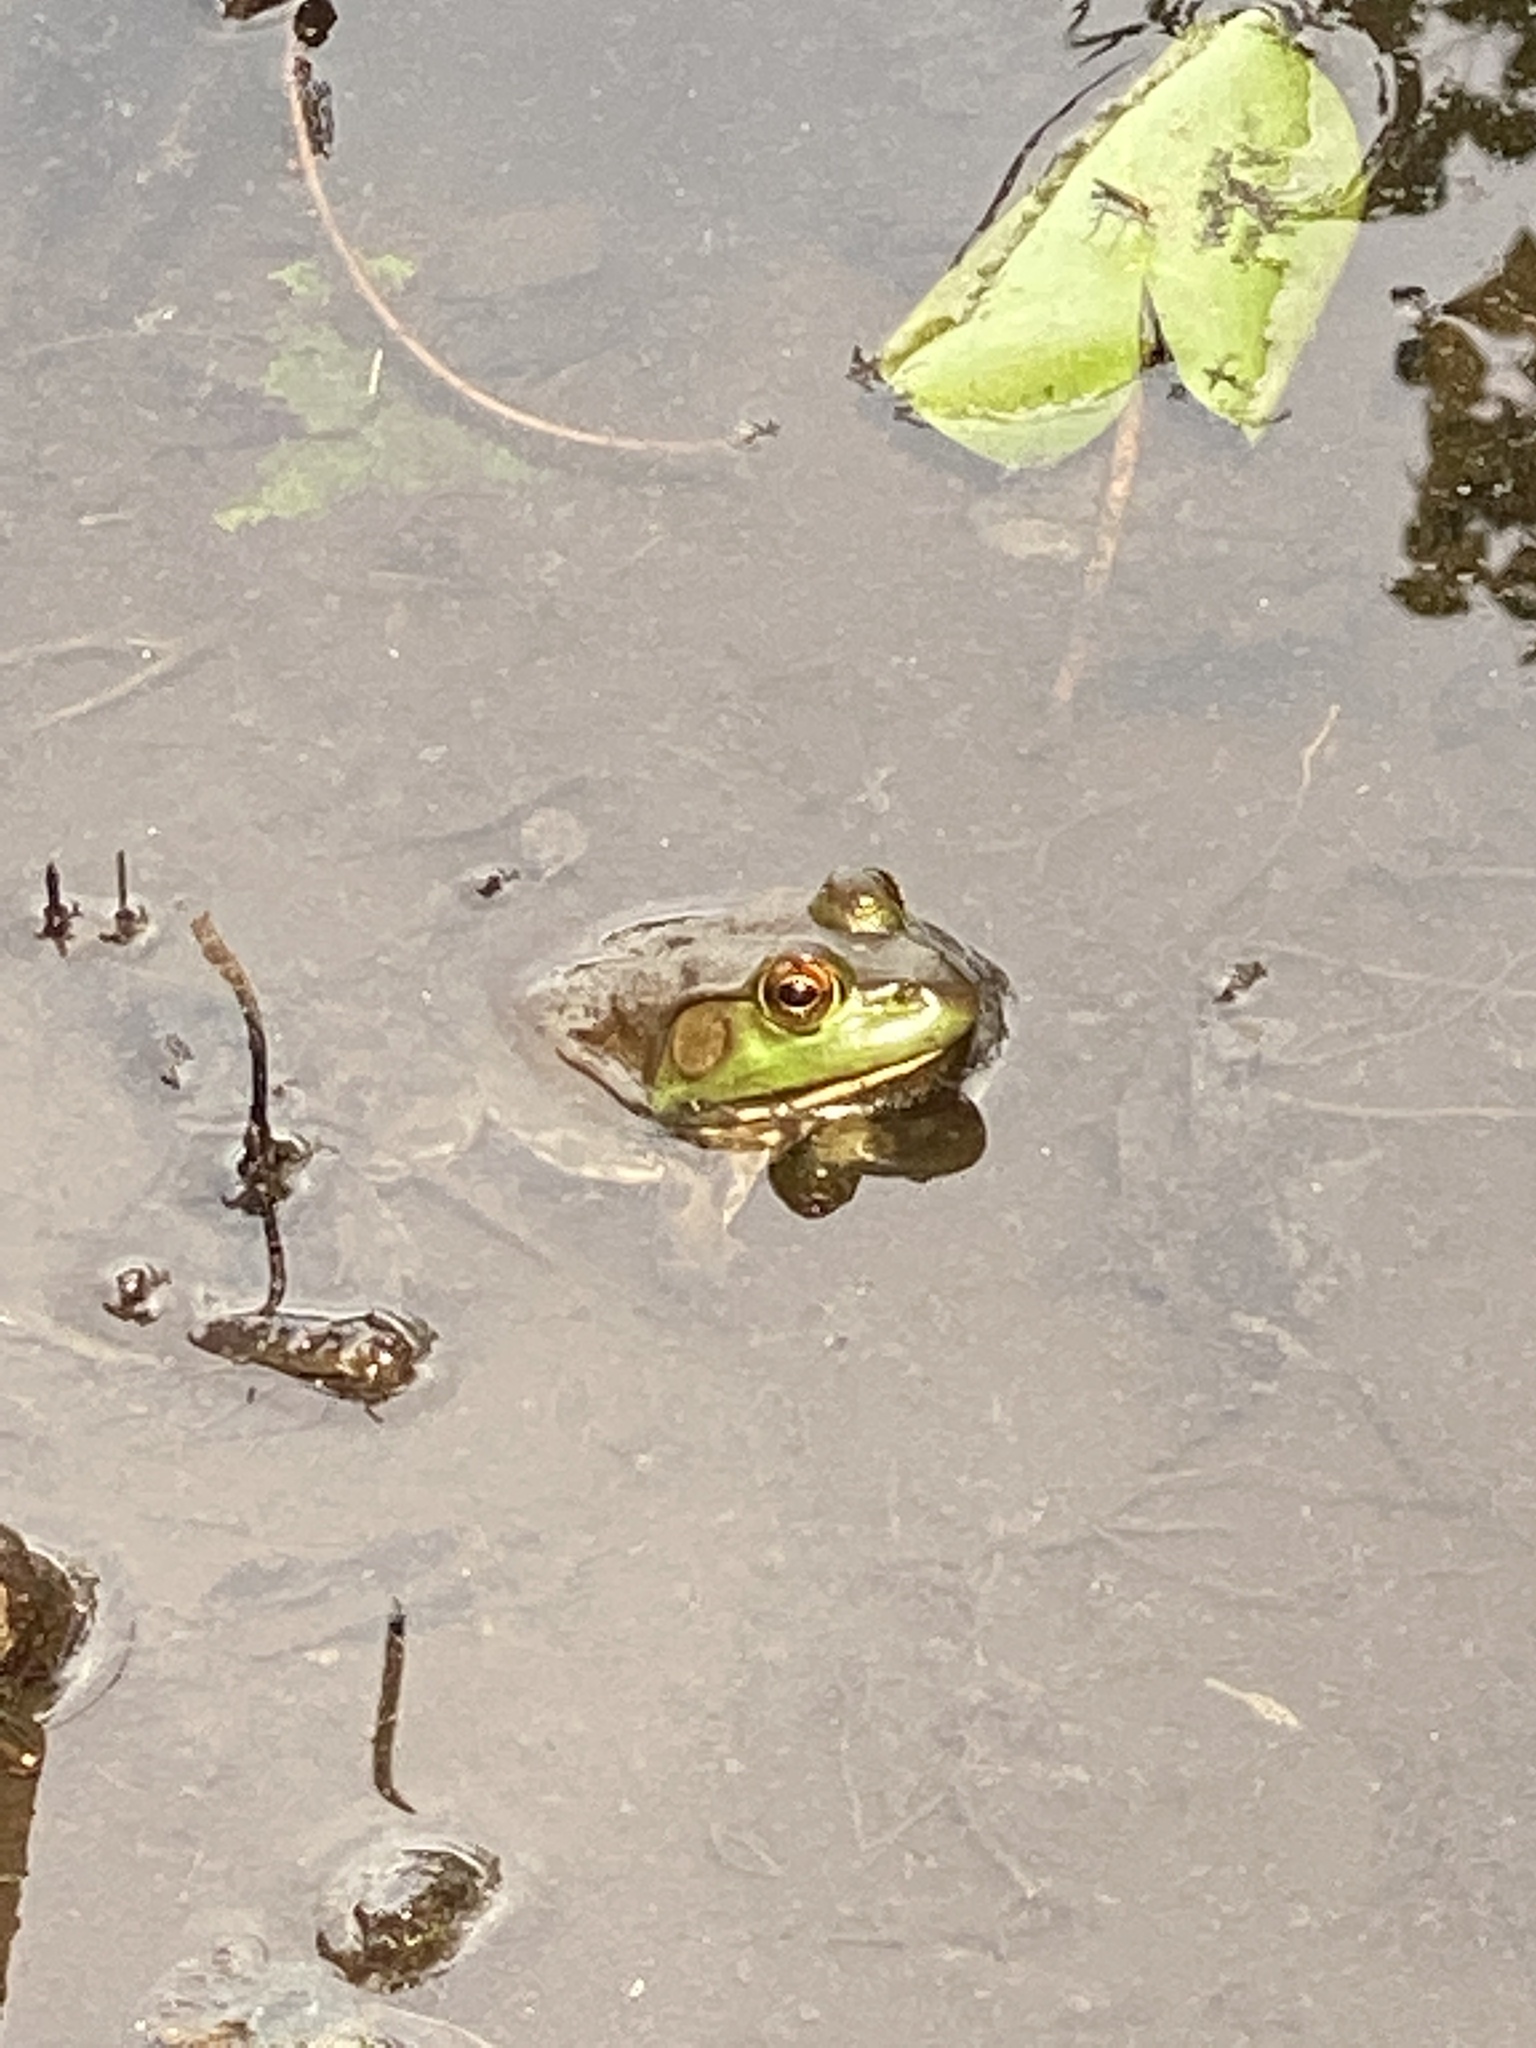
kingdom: Animalia
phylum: Chordata
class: Amphibia
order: Anura
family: Ranidae
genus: Lithobates
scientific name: Lithobates catesbeianus
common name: American bullfrog
